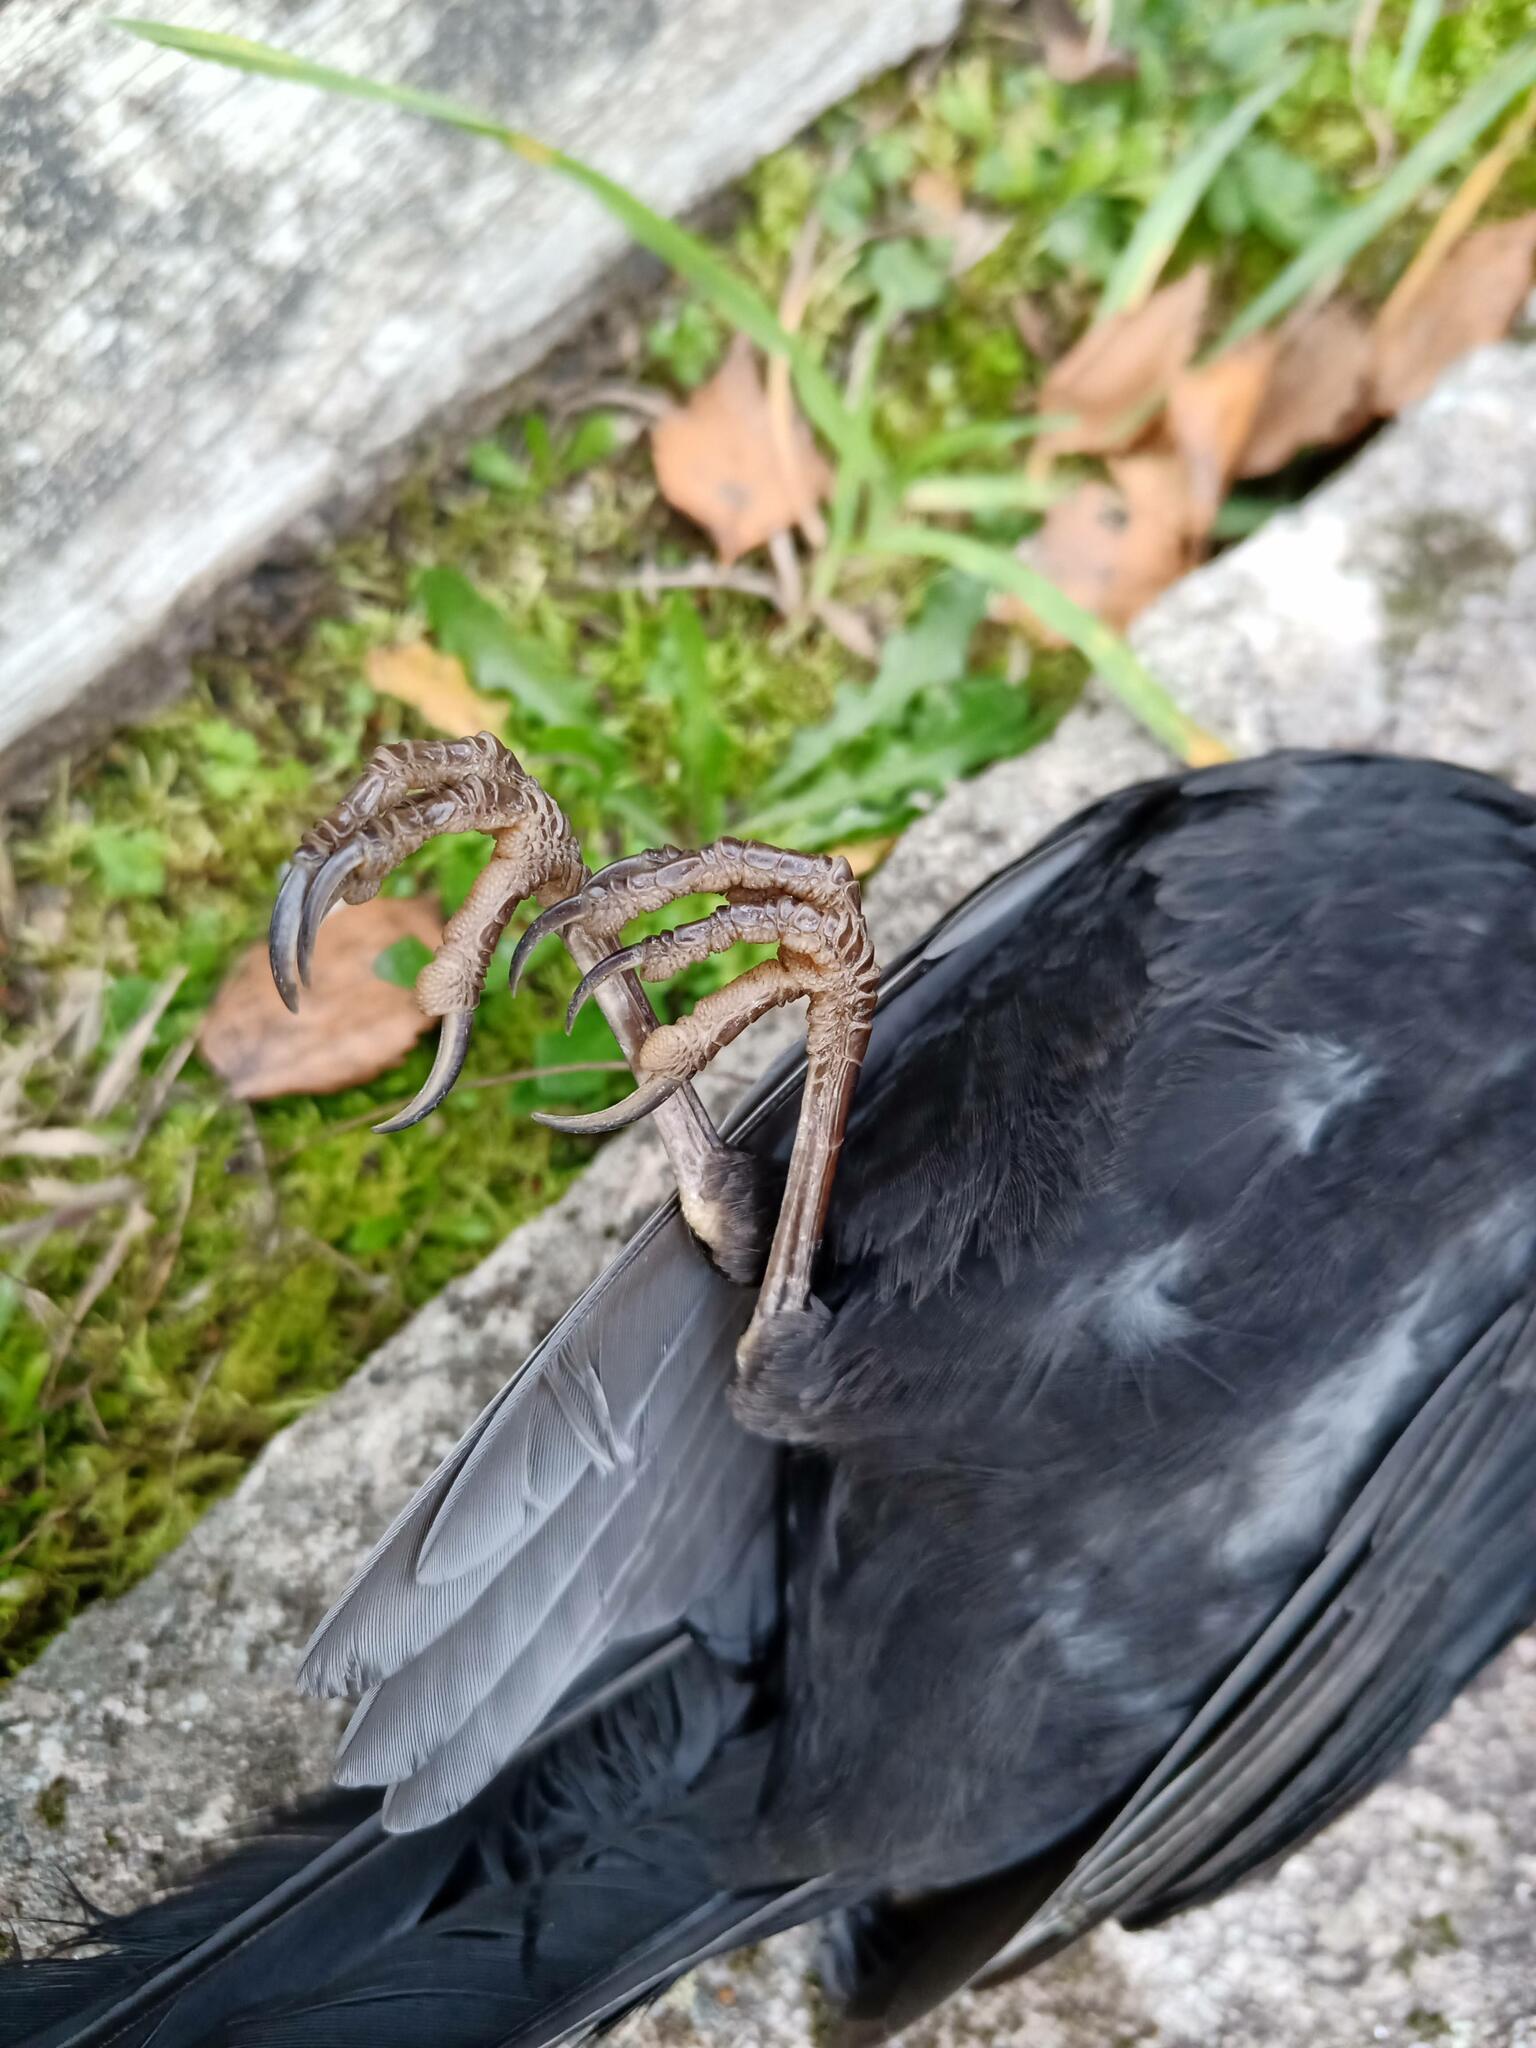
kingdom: Animalia
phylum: Chordata
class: Aves
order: Passeriformes
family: Turdidae
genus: Turdus
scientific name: Turdus merula
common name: Common blackbird
